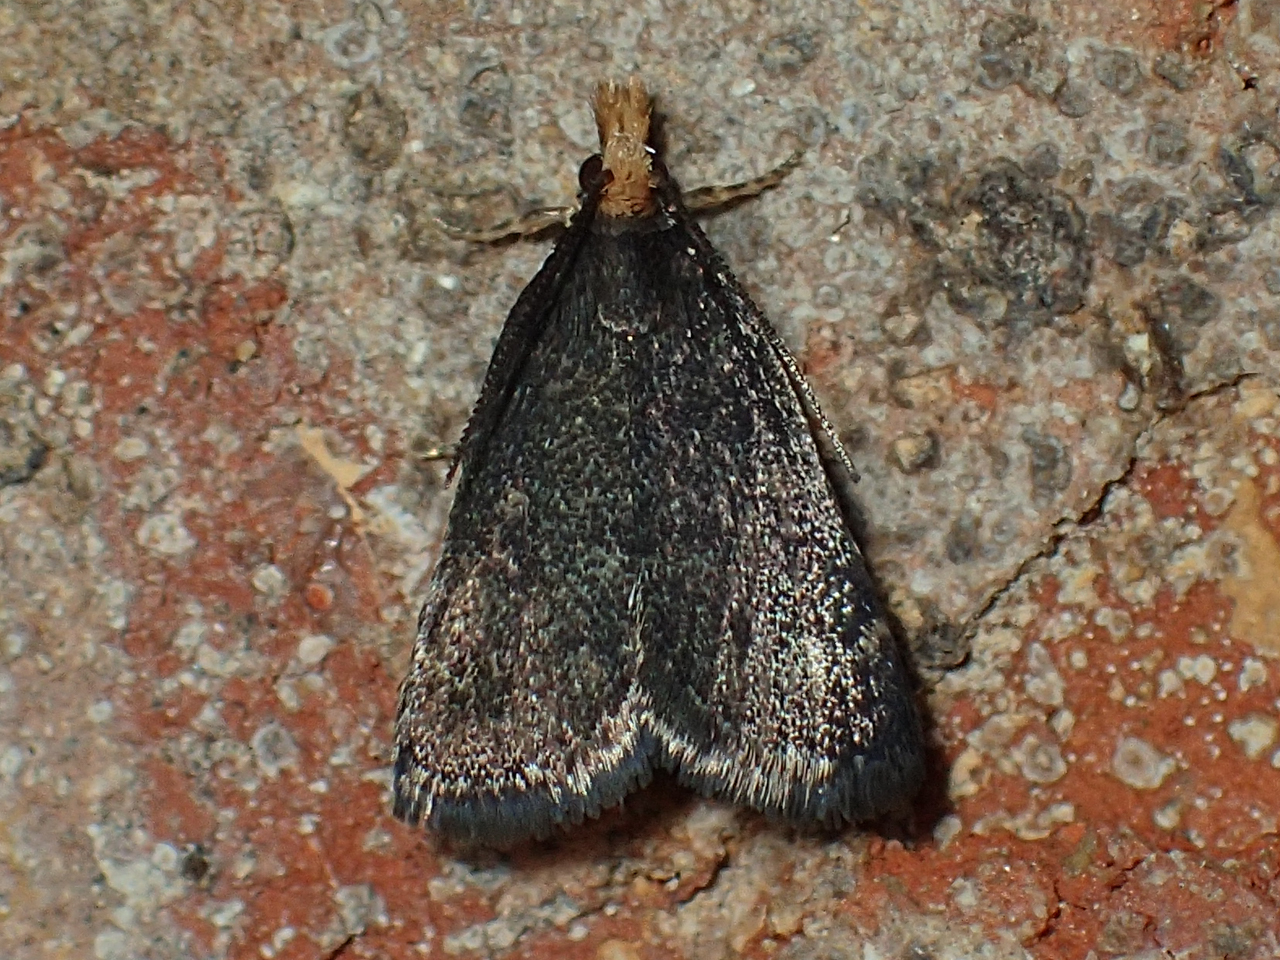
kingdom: Animalia
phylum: Arthropoda
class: Insecta
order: Lepidoptera
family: Crambidae
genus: Pyrausta
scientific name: Pyrausta merrickalis
